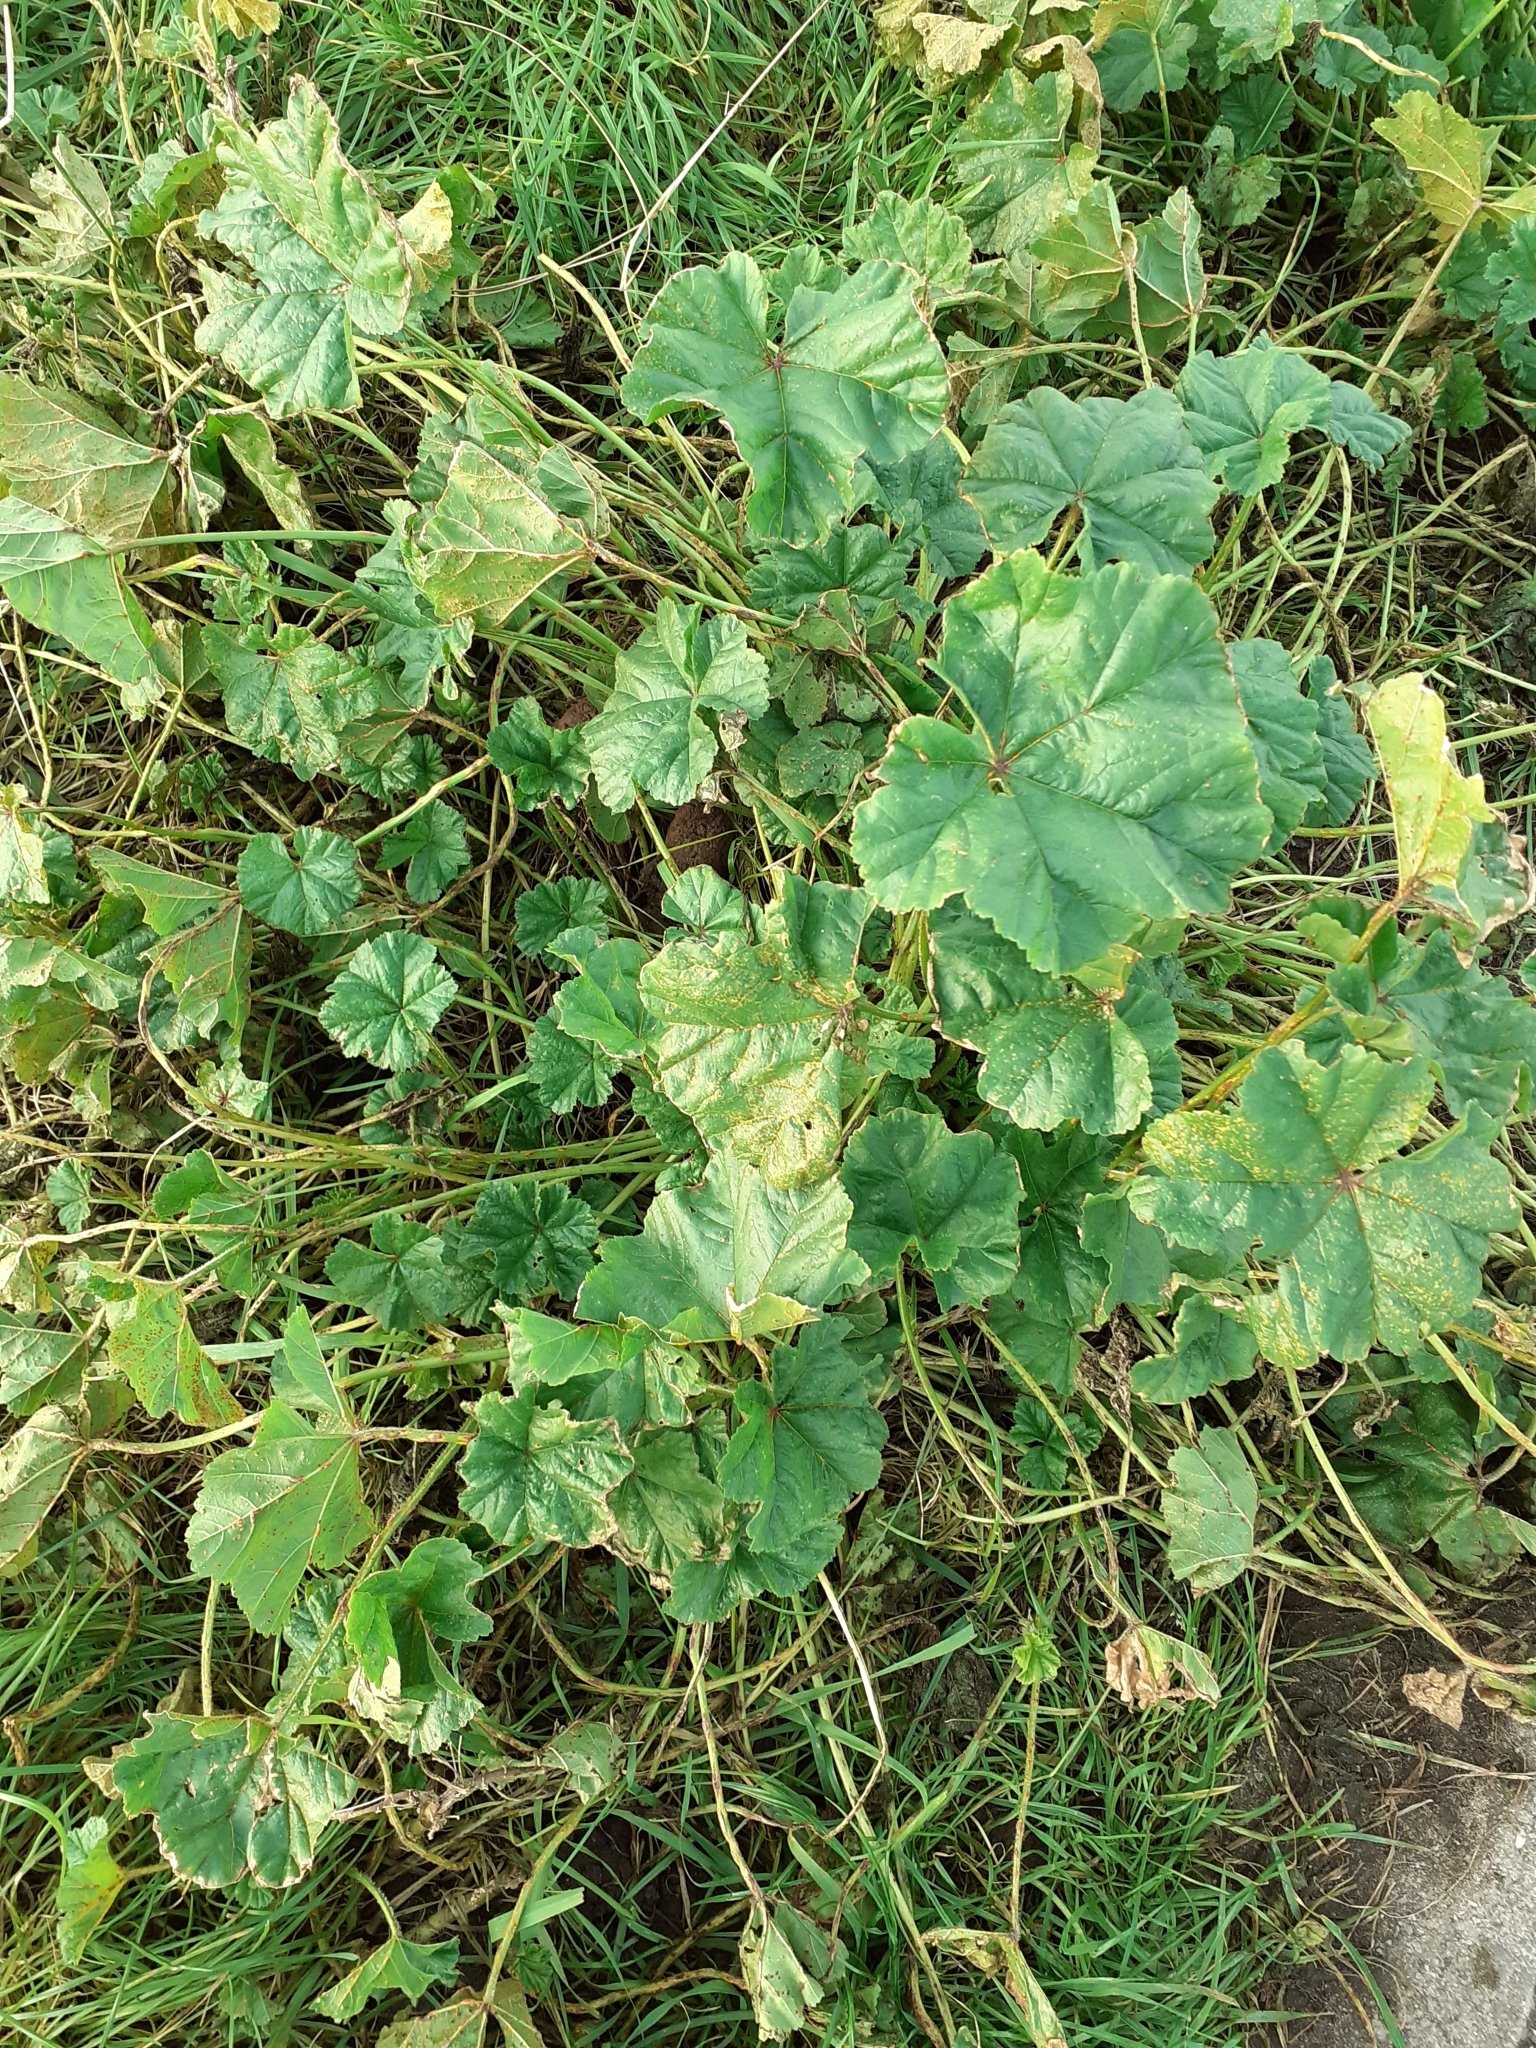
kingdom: Plantae
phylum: Tracheophyta
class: Magnoliopsida
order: Malvales
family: Malvaceae
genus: Malva
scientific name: Malva sylvestris
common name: Common mallow
